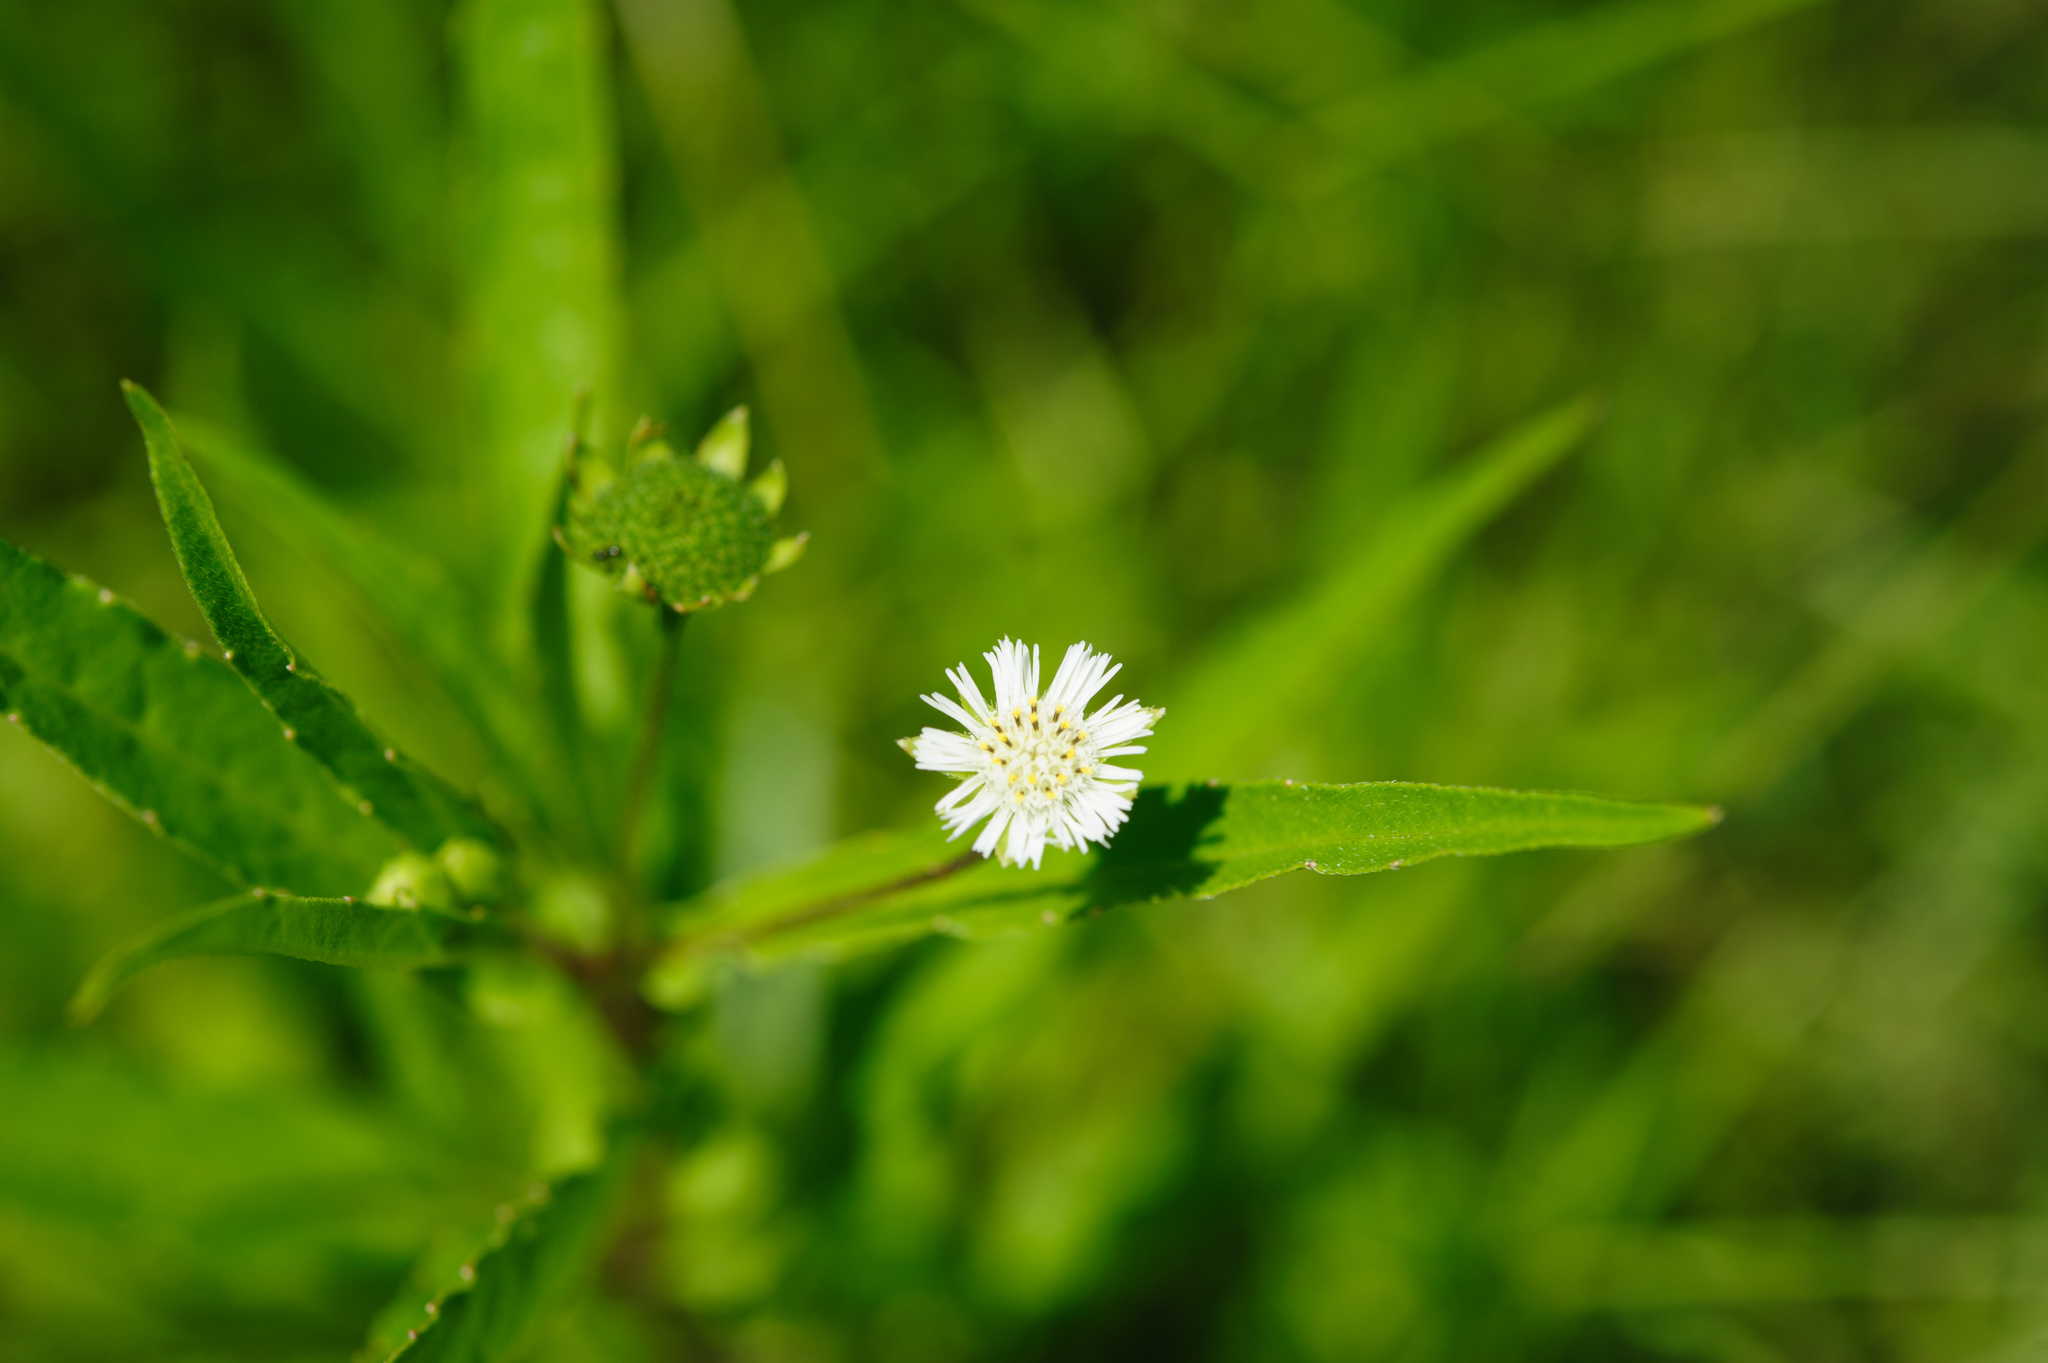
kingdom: Plantae
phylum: Tracheophyta
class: Magnoliopsida
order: Asterales
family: Asteraceae
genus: Eclipta
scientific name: Eclipta prostrata
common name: False daisy
